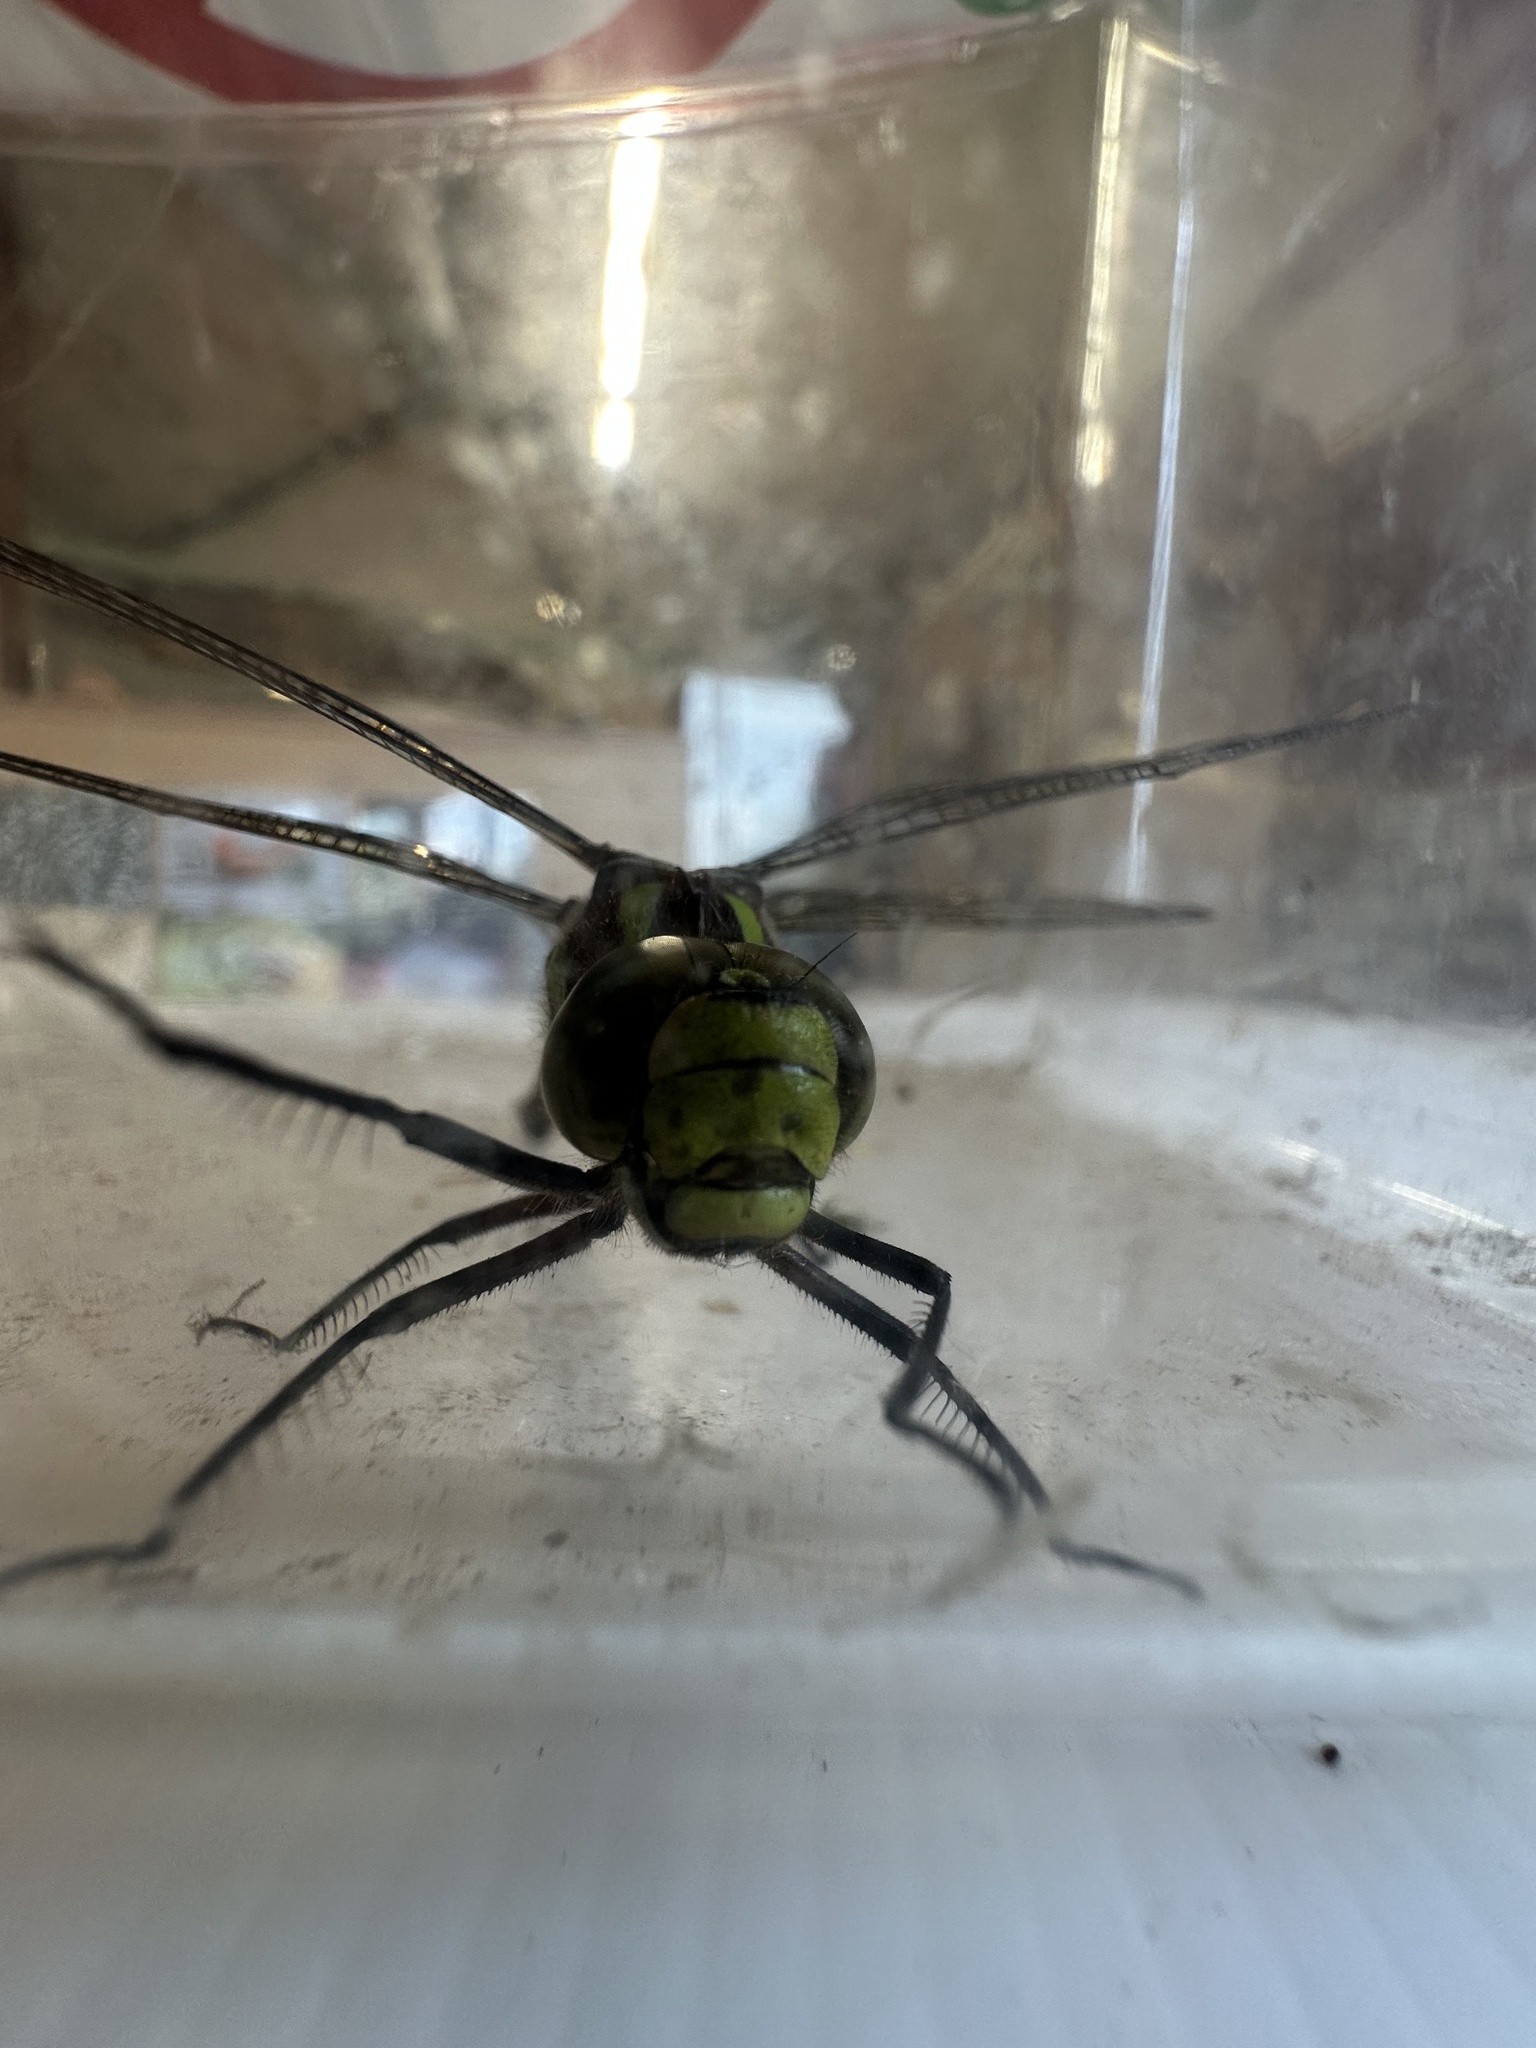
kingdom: Animalia
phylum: Arthropoda
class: Insecta
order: Odonata
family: Aeshnidae
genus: Aeshna
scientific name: Aeshna cyanea
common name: Southern hawker
